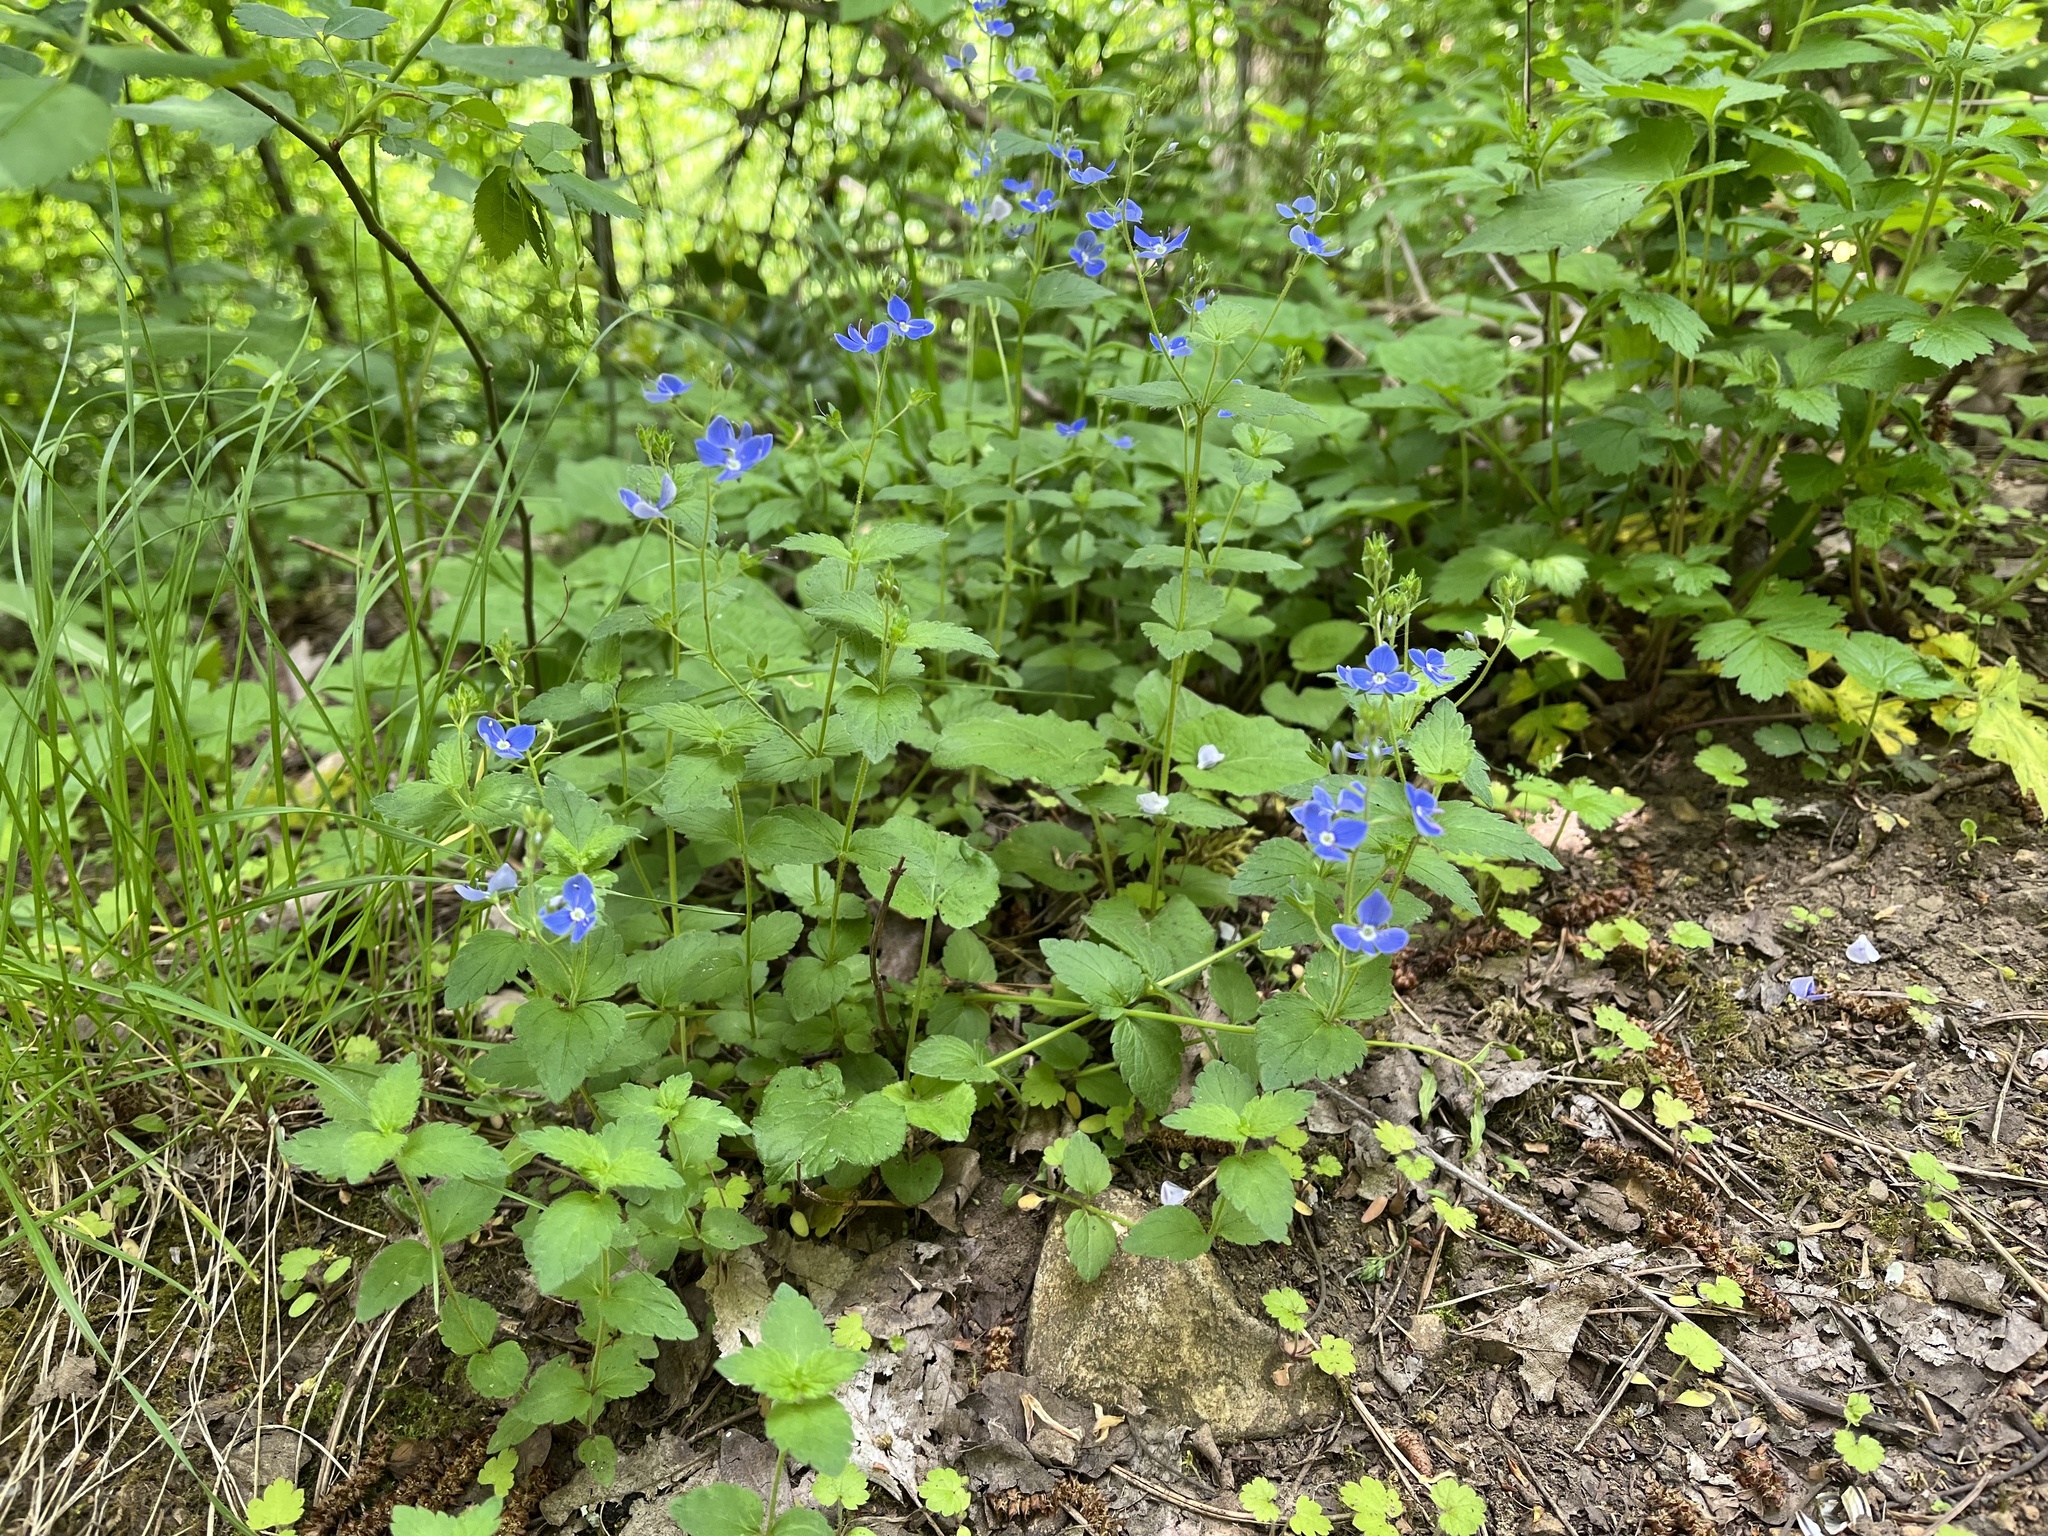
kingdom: Plantae
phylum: Tracheophyta
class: Magnoliopsida
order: Lamiales
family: Plantaginaceae
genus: Veronica
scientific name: Veronica chamaedrys
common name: Germander speedwell
